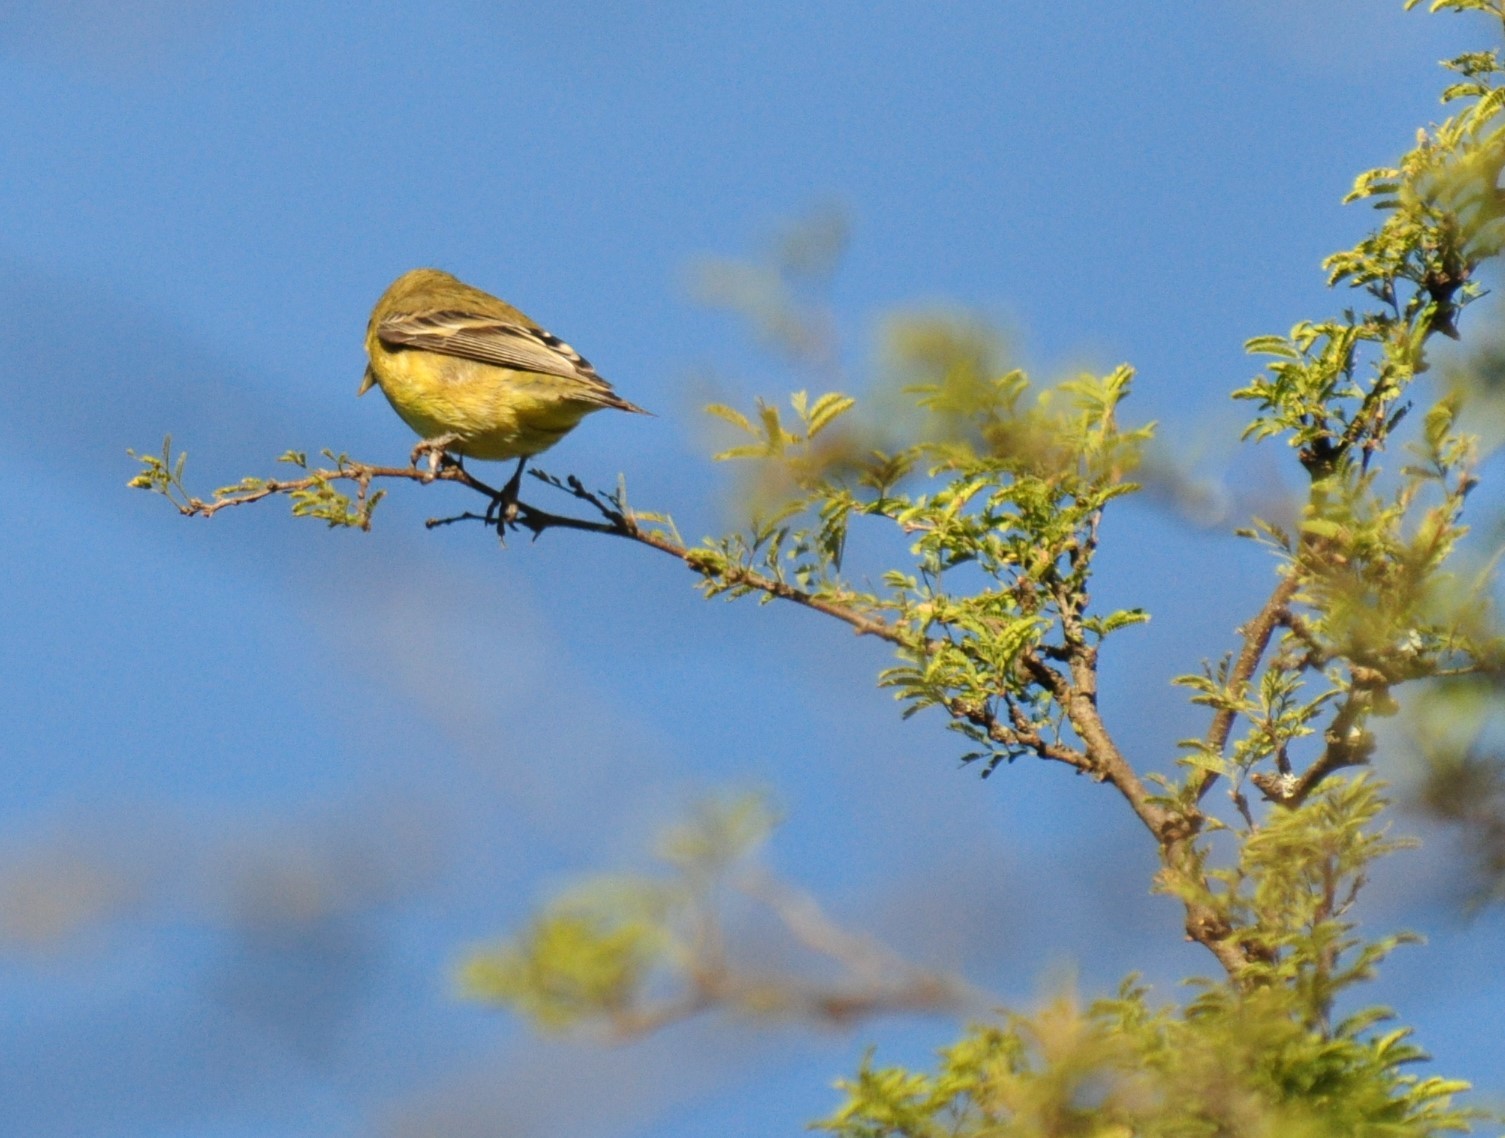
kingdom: Animalia
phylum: Chordata
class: Aves
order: Passeriformes
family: Fringillidae
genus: Spinus
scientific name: Spinus psaltria
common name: Lesser goldfinch
